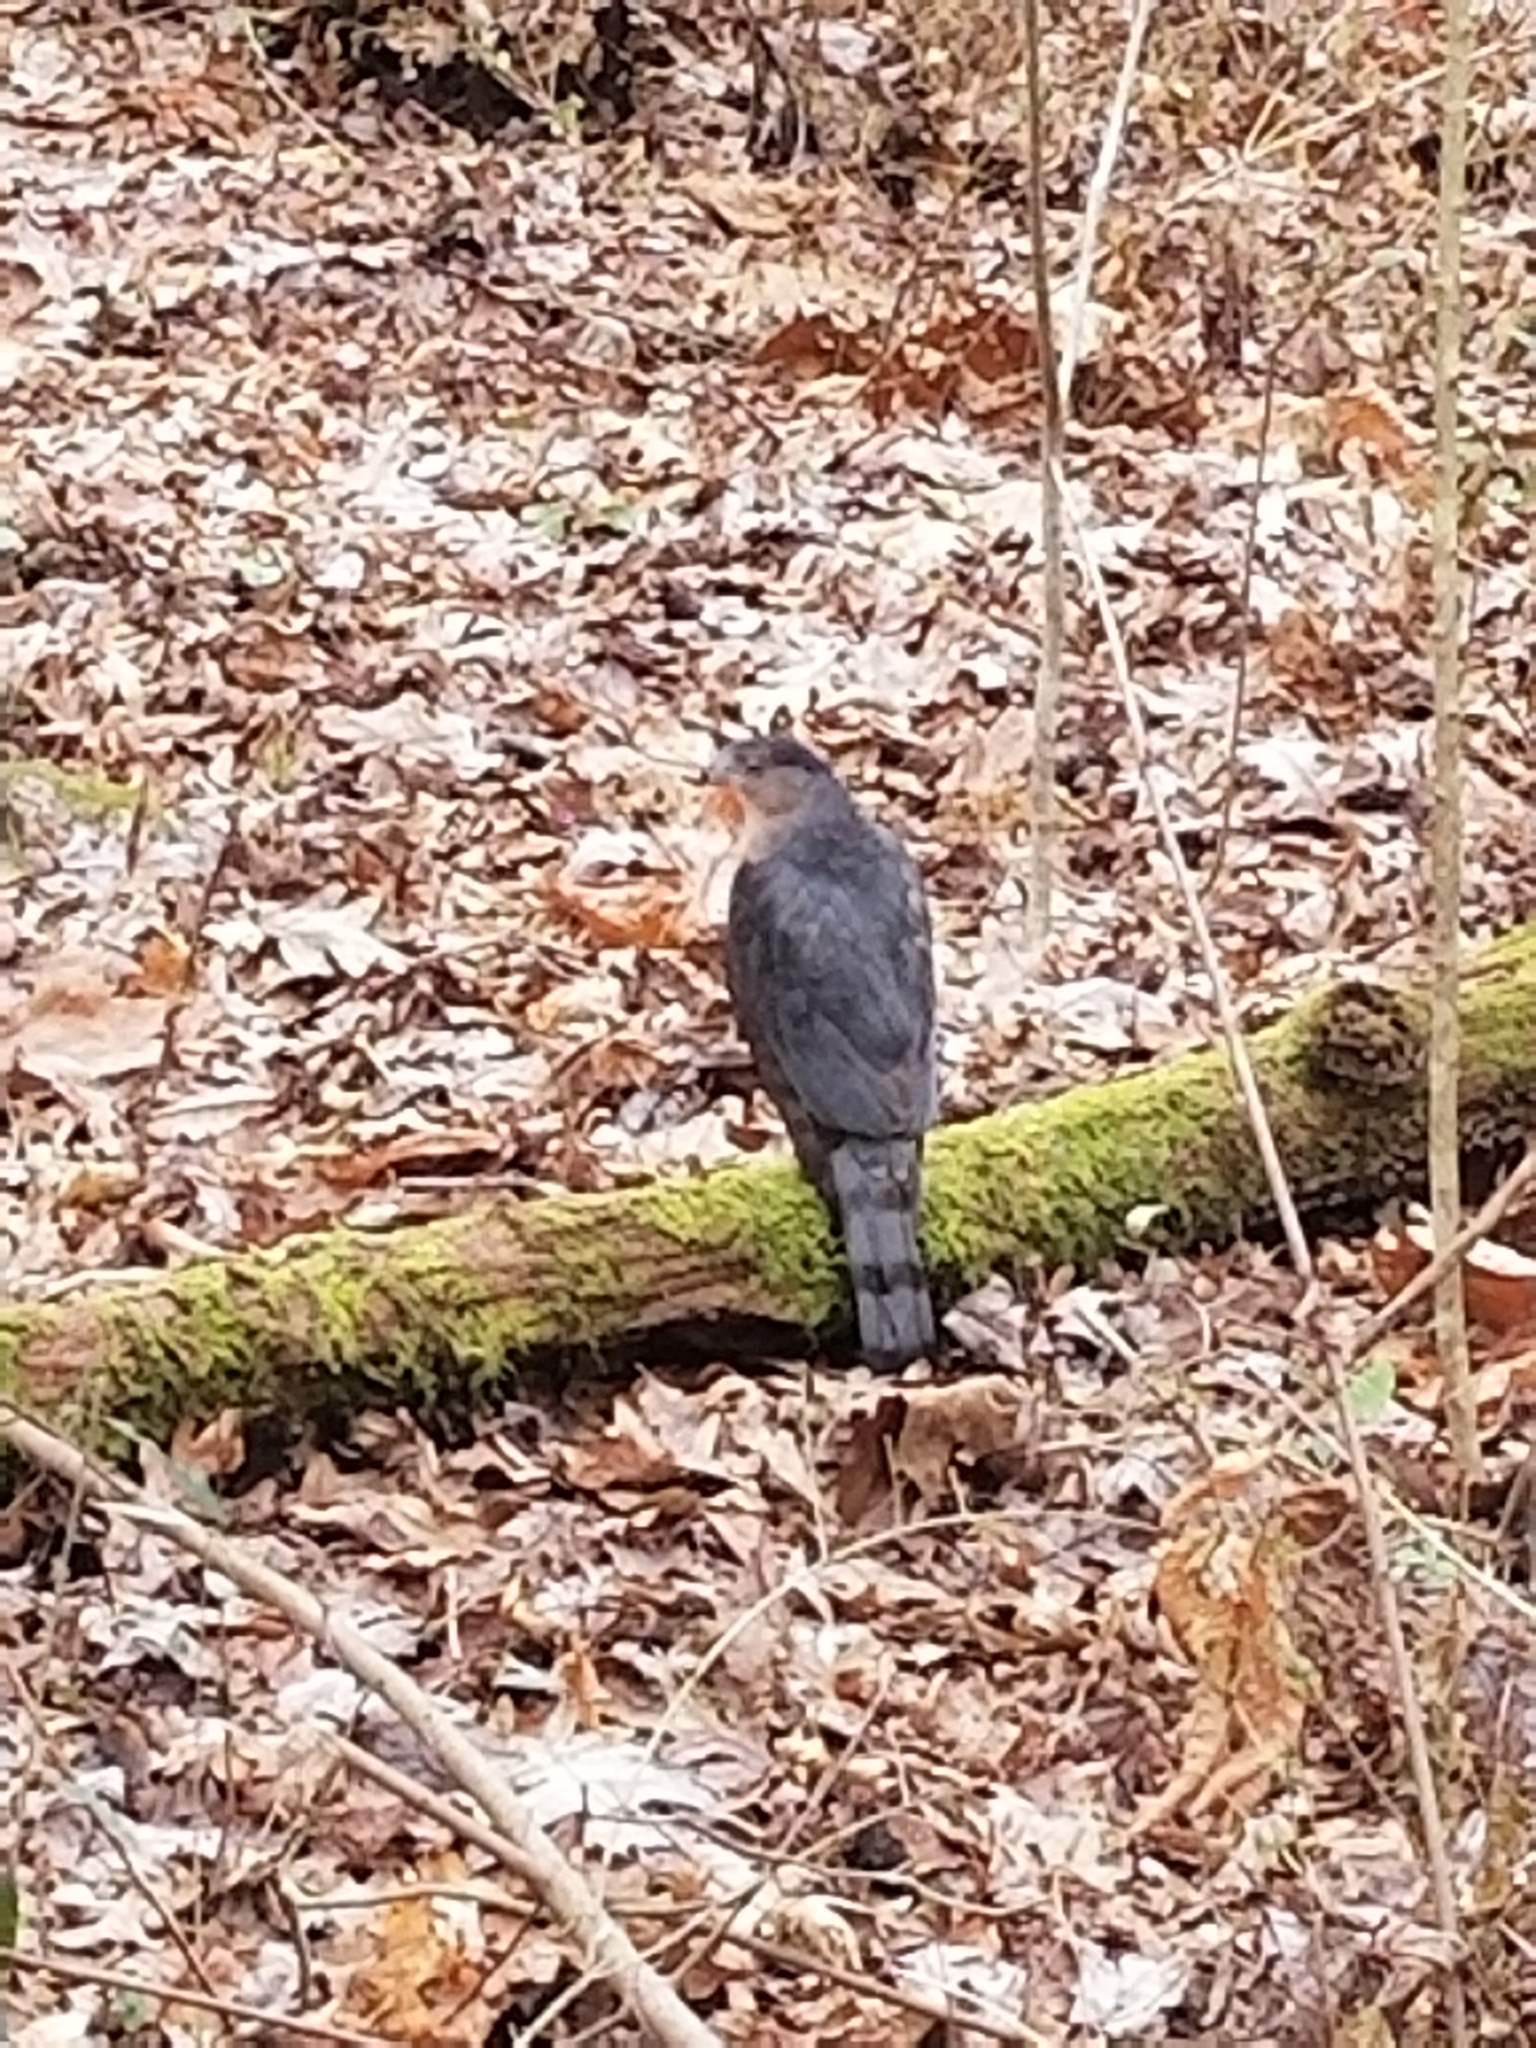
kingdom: Animalia
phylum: Chordata
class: Aves
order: Accipitriformes
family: Accipitridae
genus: Accipiter
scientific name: Accipiter cooperii
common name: Cooper's hawk
